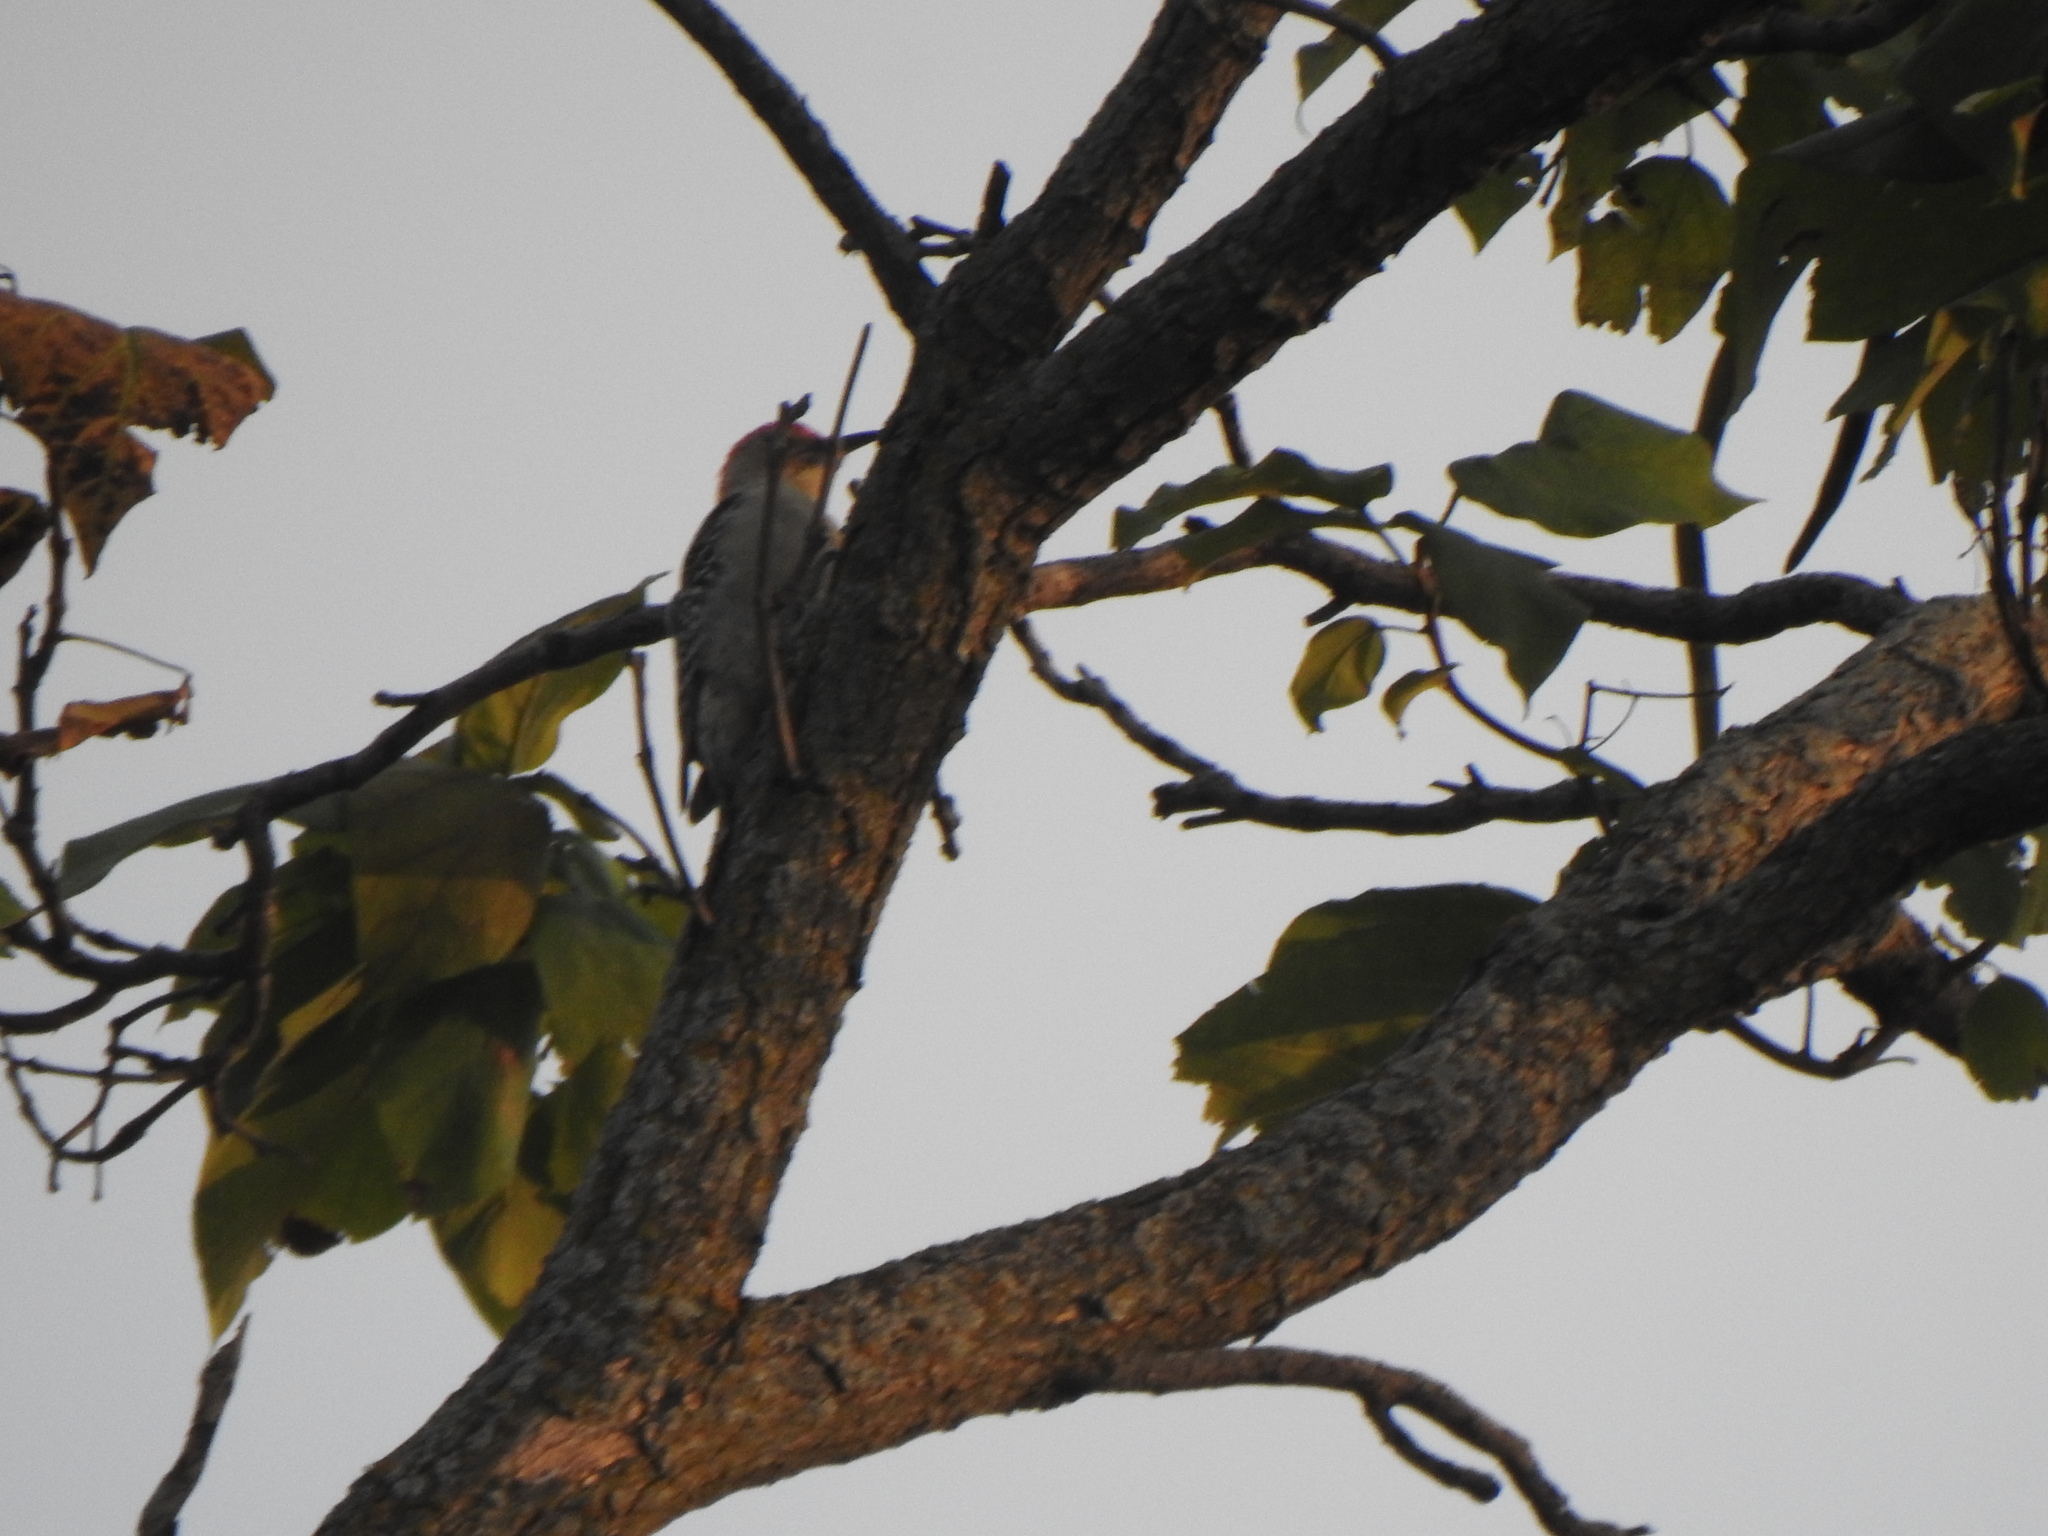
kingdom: Animalia
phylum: Chordata
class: Aves
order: Piciformes
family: Picidae
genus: Melanerpes
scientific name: Melanerpes carolinus
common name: Red-bellied woodpecker
